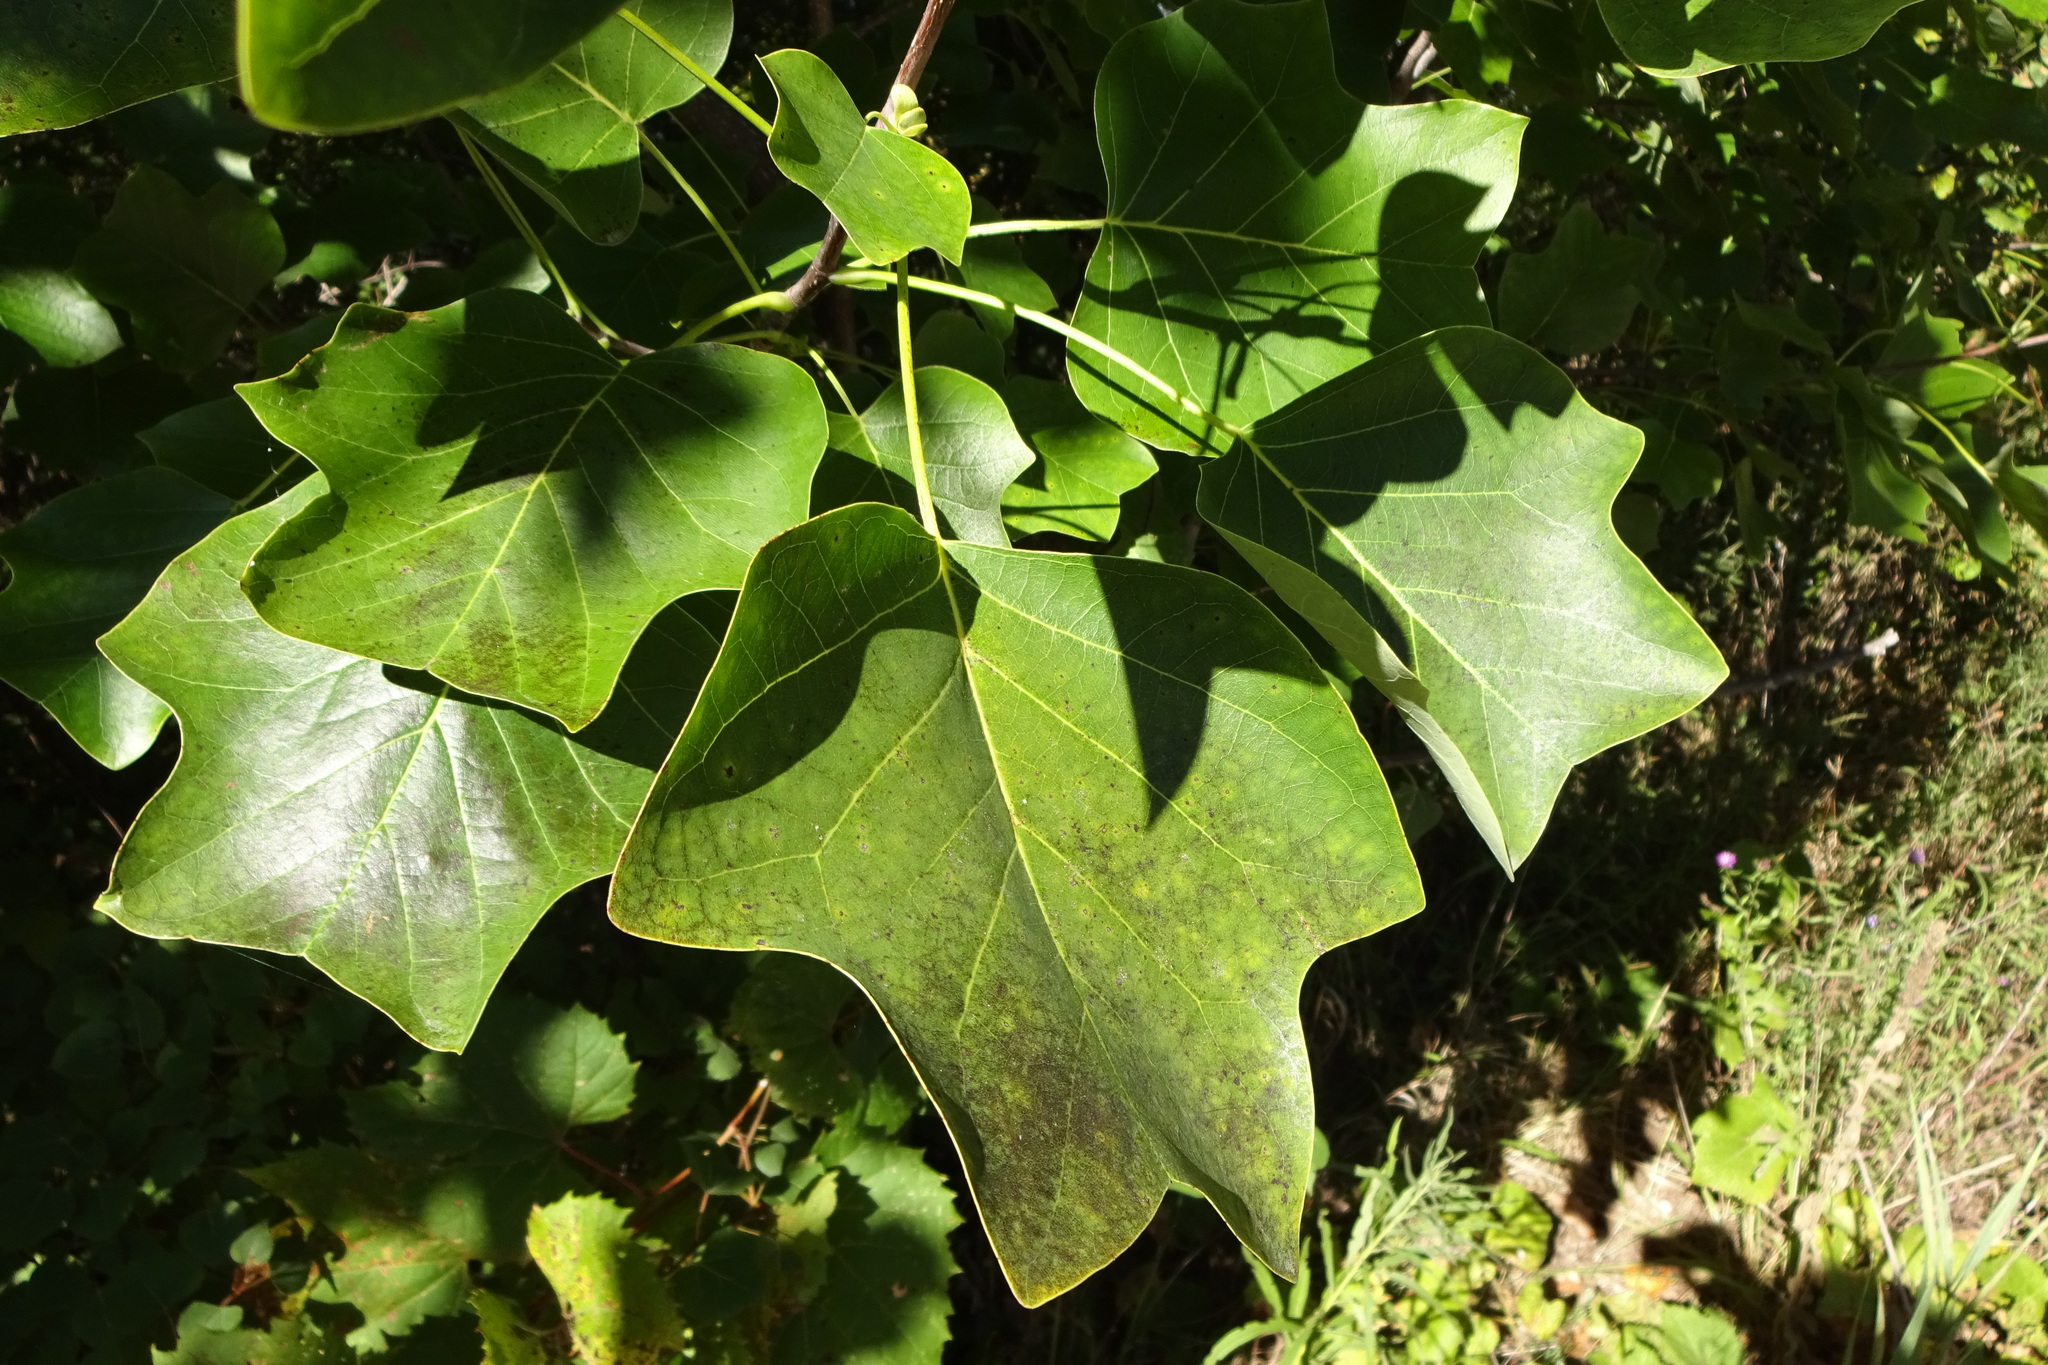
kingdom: Plantae
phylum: Tracheophyta
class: Magnoliopsida
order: Magnoliales
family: Magnoliaceae
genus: Liriodendron
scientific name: Liriodendron tulipifera
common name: Tulip tree
